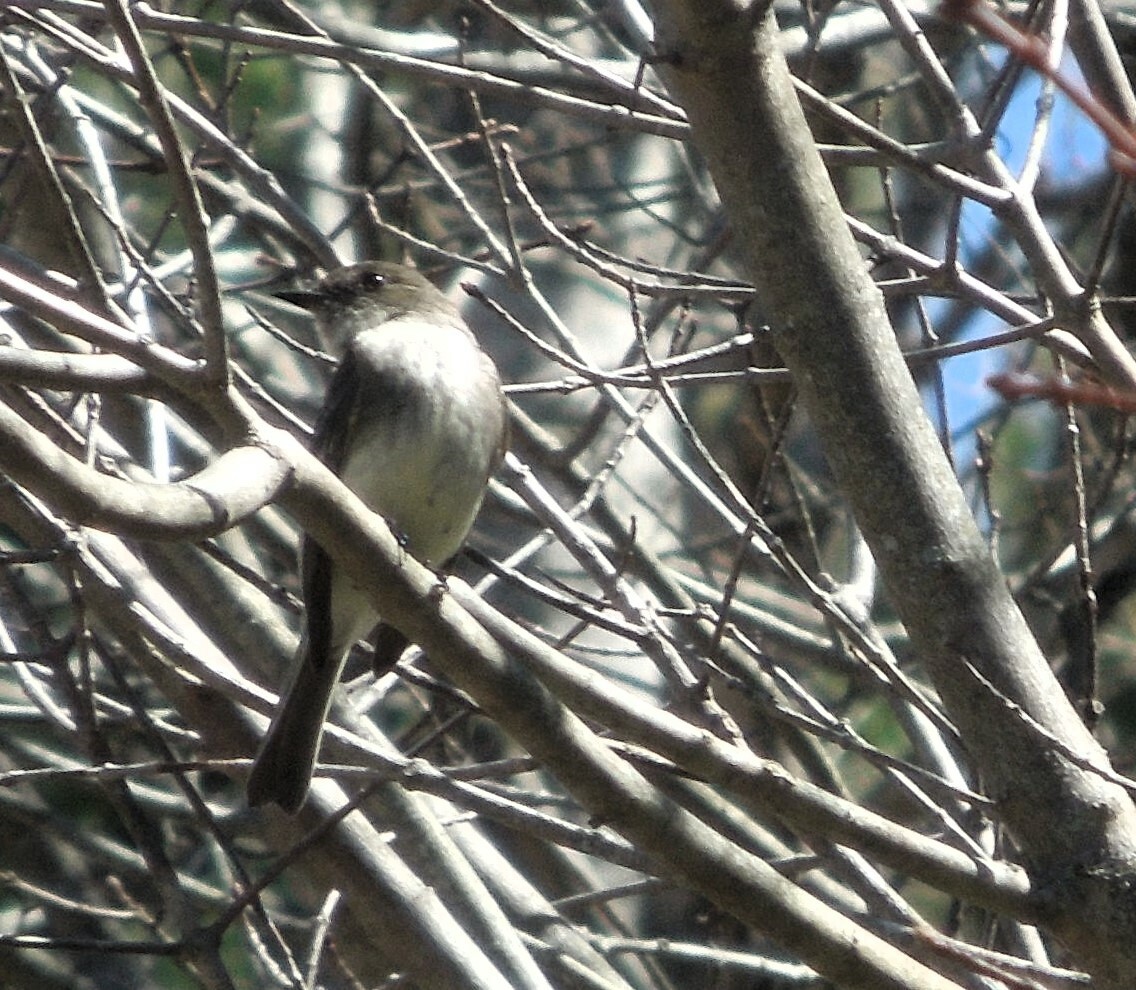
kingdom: Animalia
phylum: Chordata
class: Aves
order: Passeriformes
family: Tyrannidae
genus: Sayornis
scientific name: Sayornis phoebe
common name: Eastern phoebe
